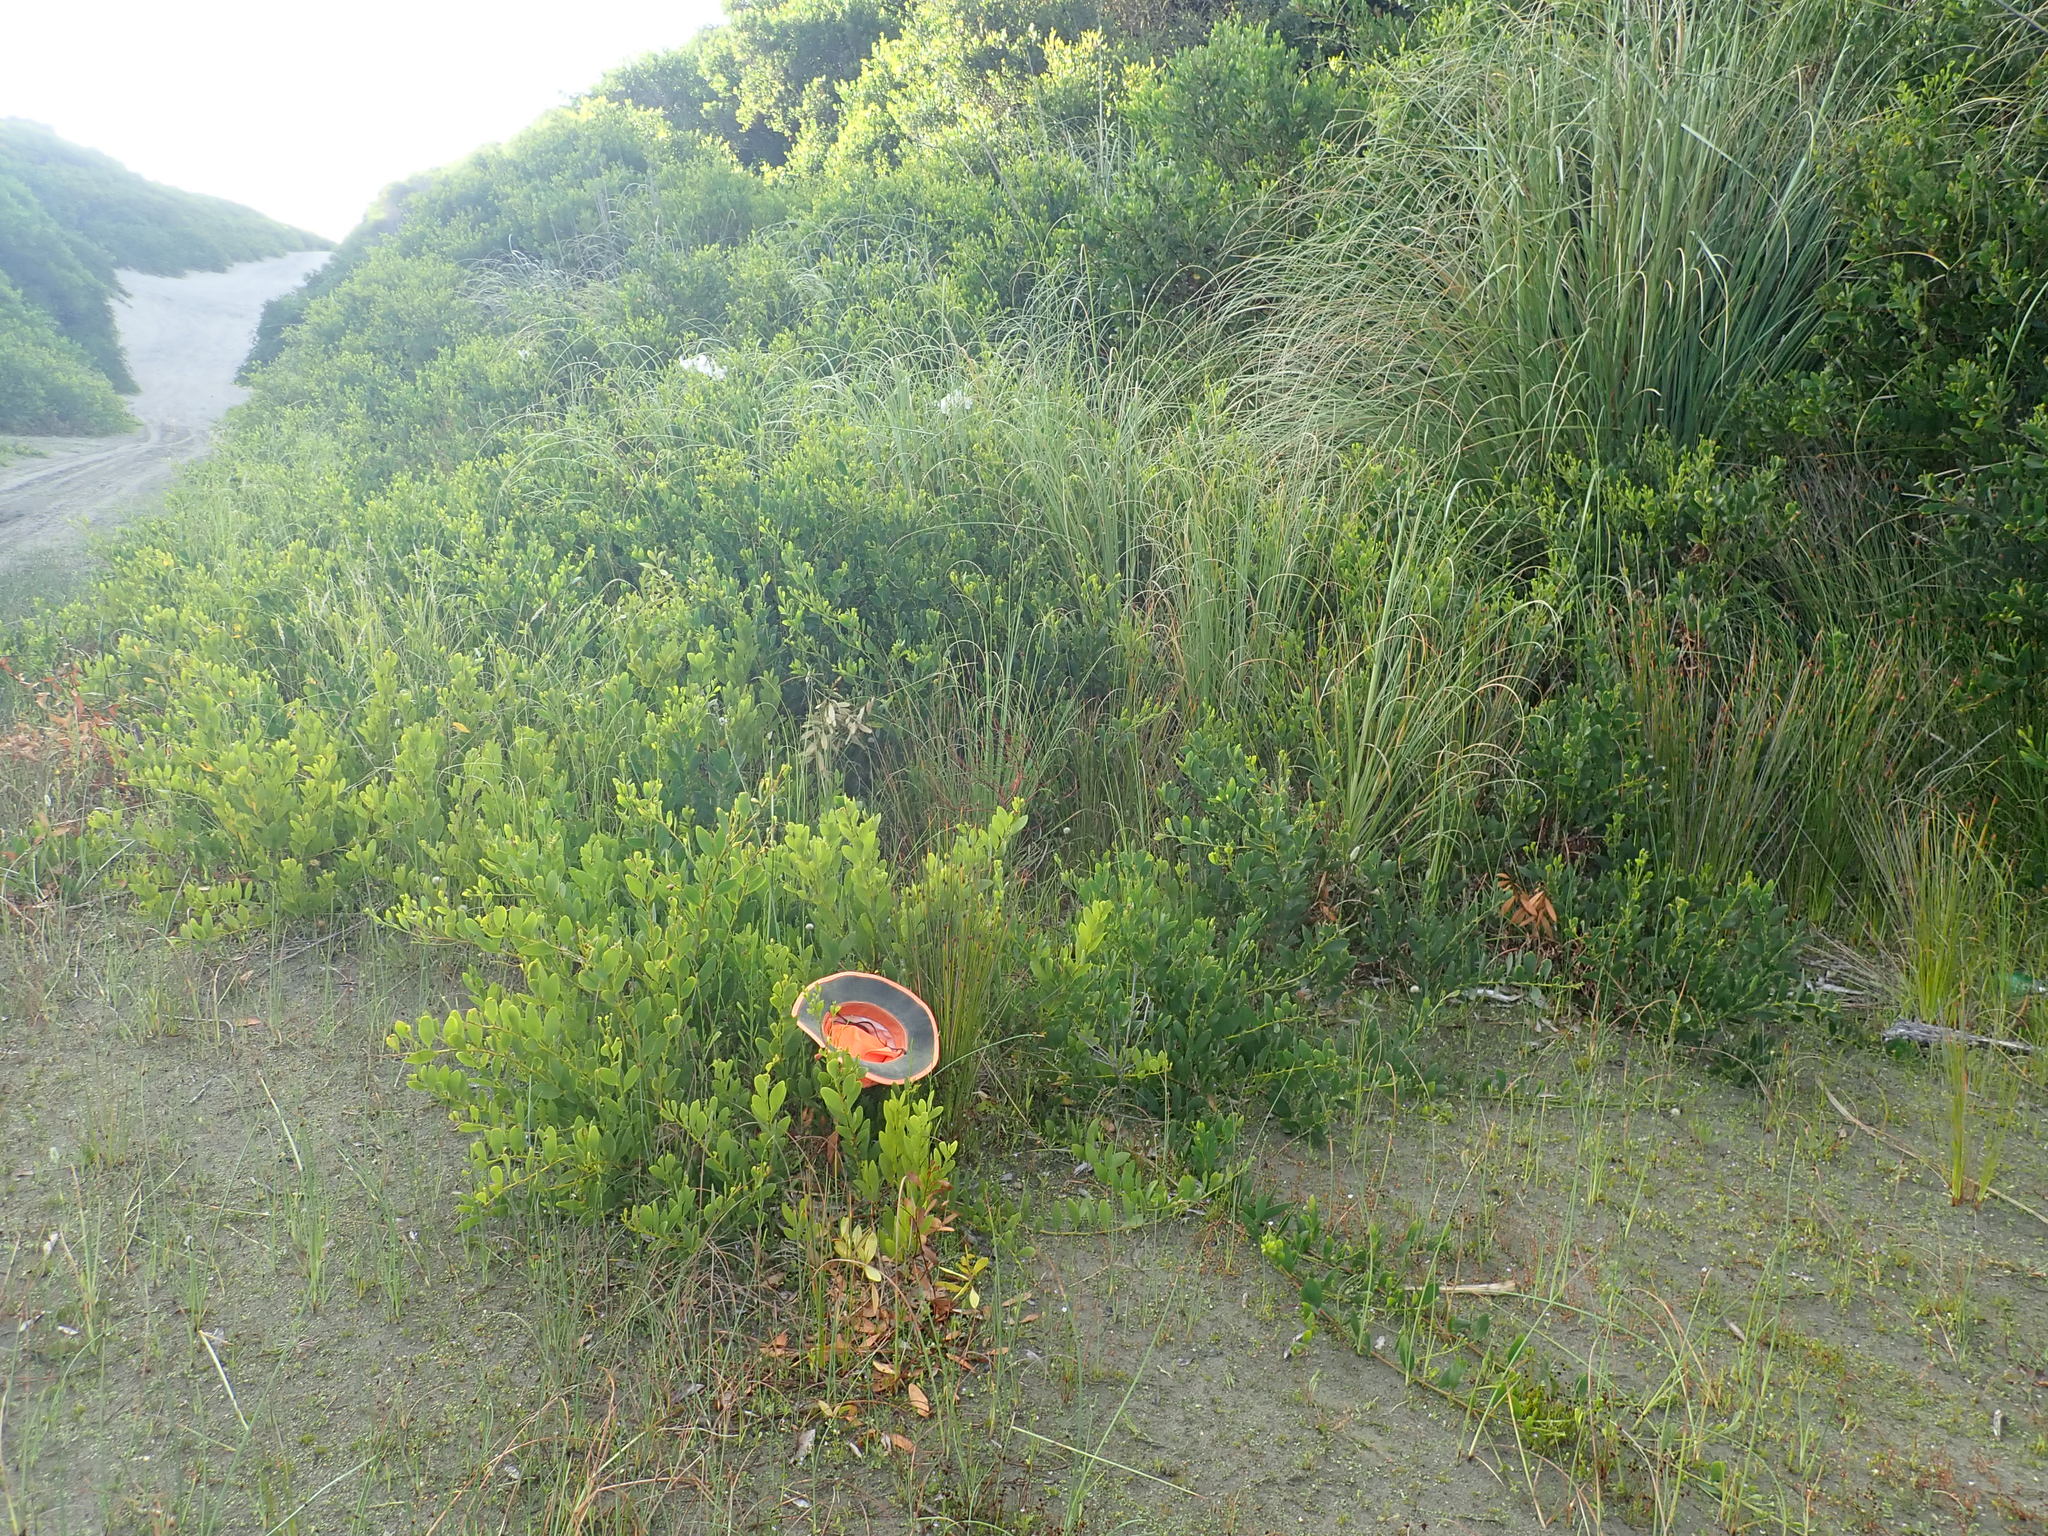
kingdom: Plantae
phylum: Tracheophyta
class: Liliopsida
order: Poales
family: Cyperaceae
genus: Ficinia
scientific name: Ficinia nodosa
